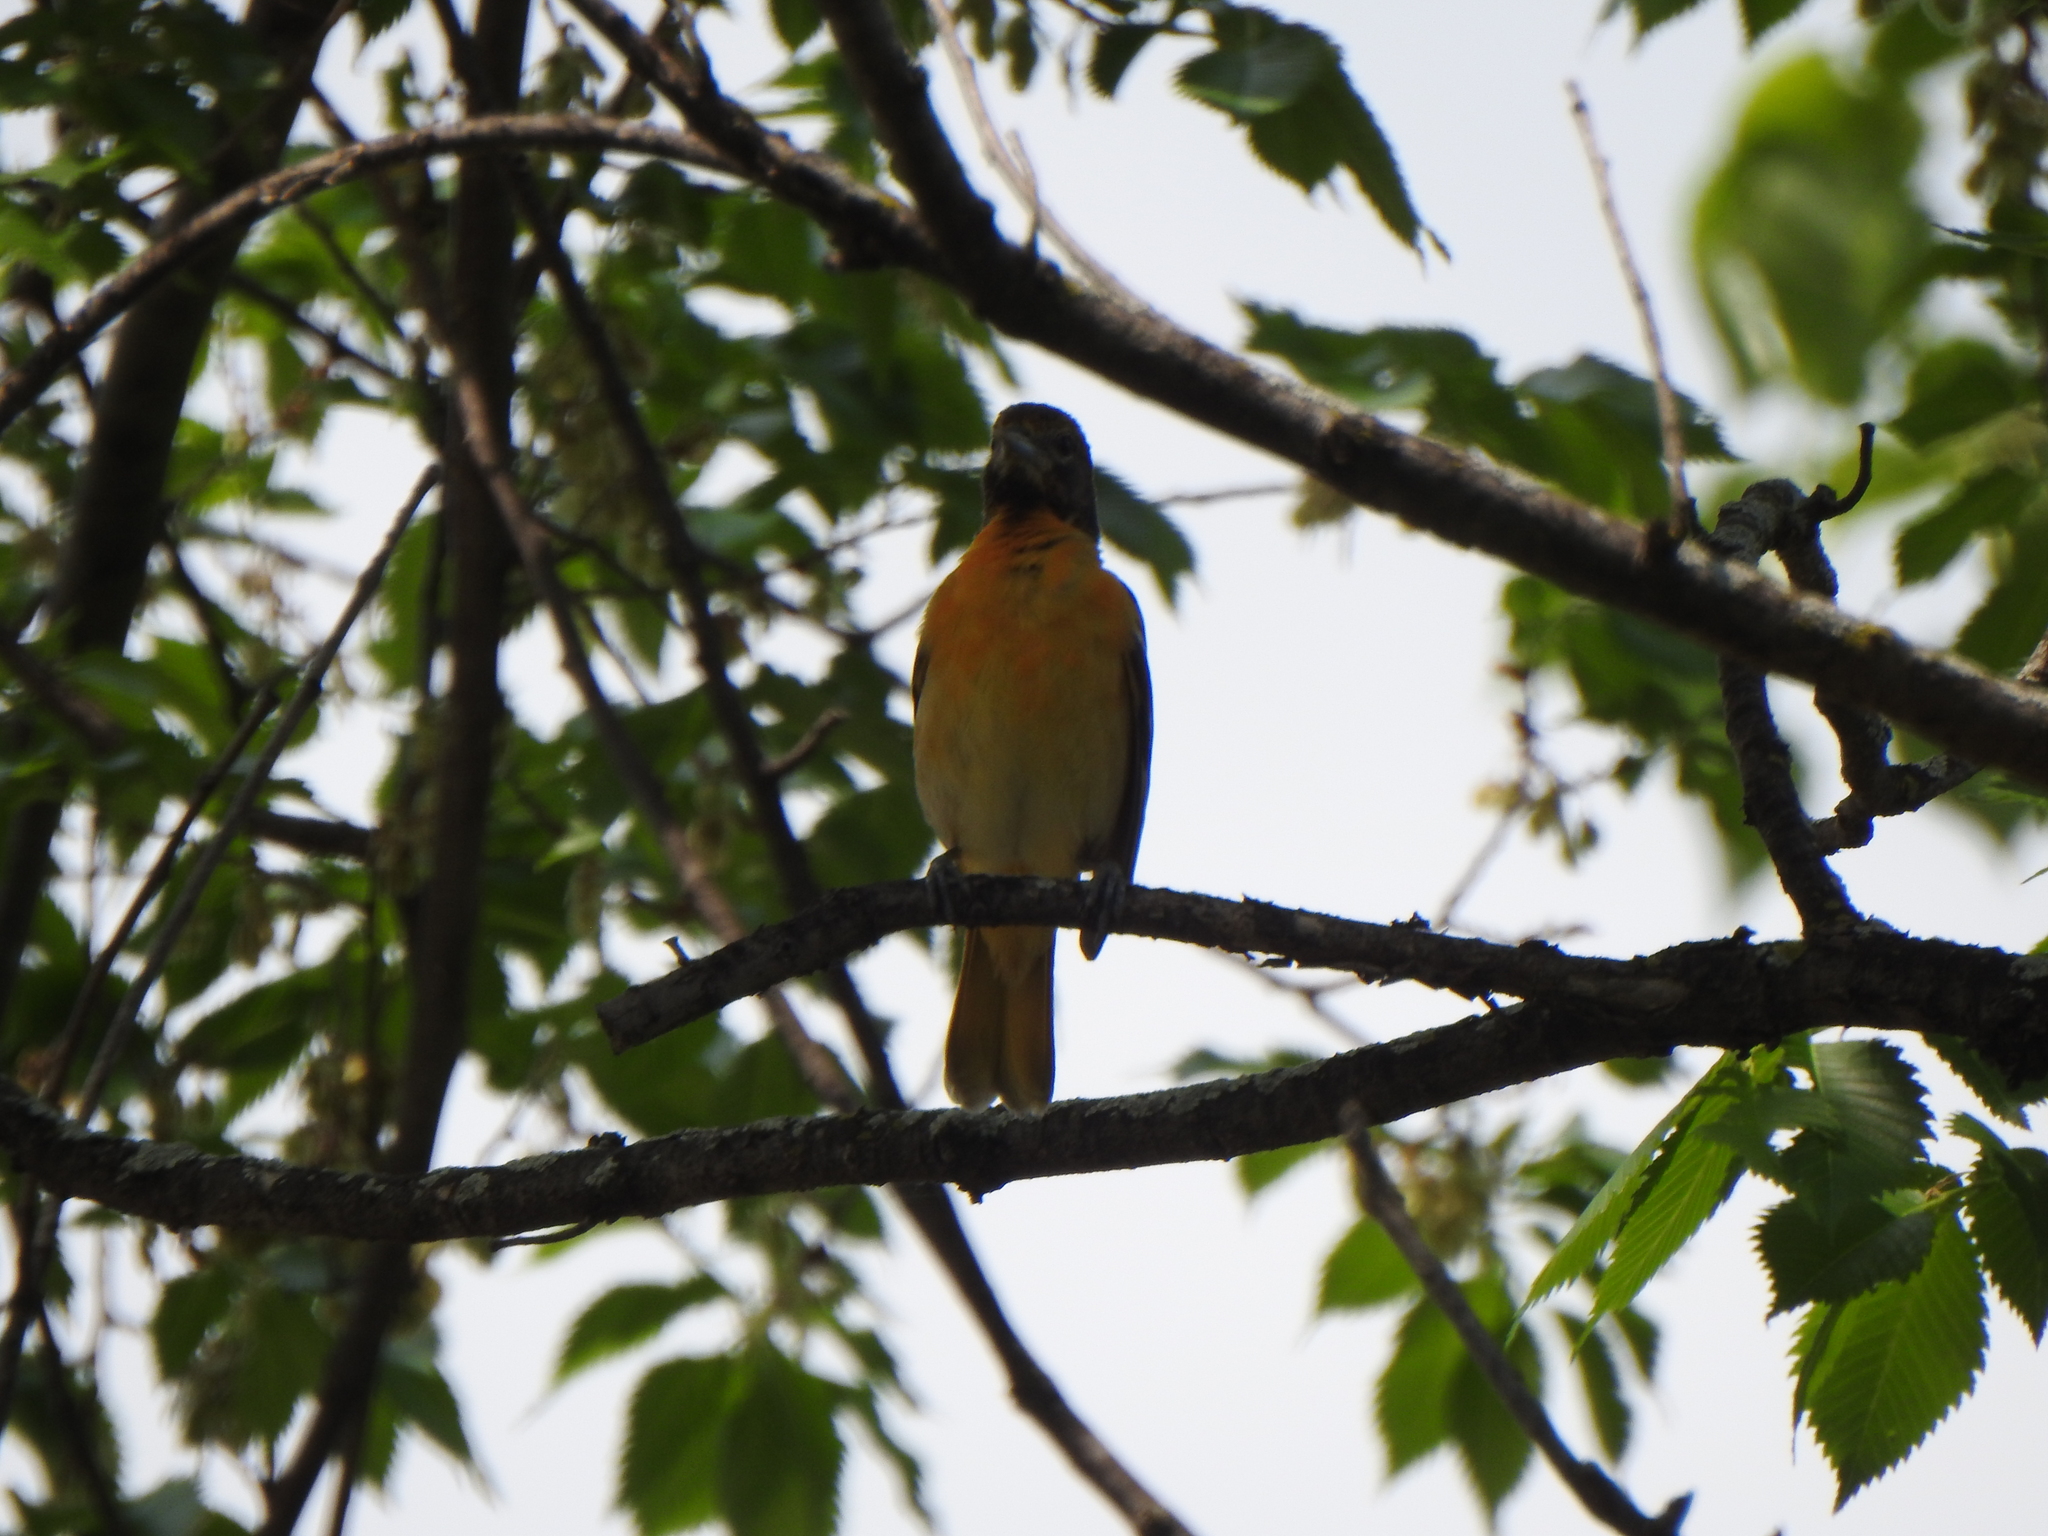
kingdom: Animalia
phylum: Chordata
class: Aves
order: Passeriformes
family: Icteridae
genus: Icterus
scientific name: Icterus galbula
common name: Baltimore oriole
